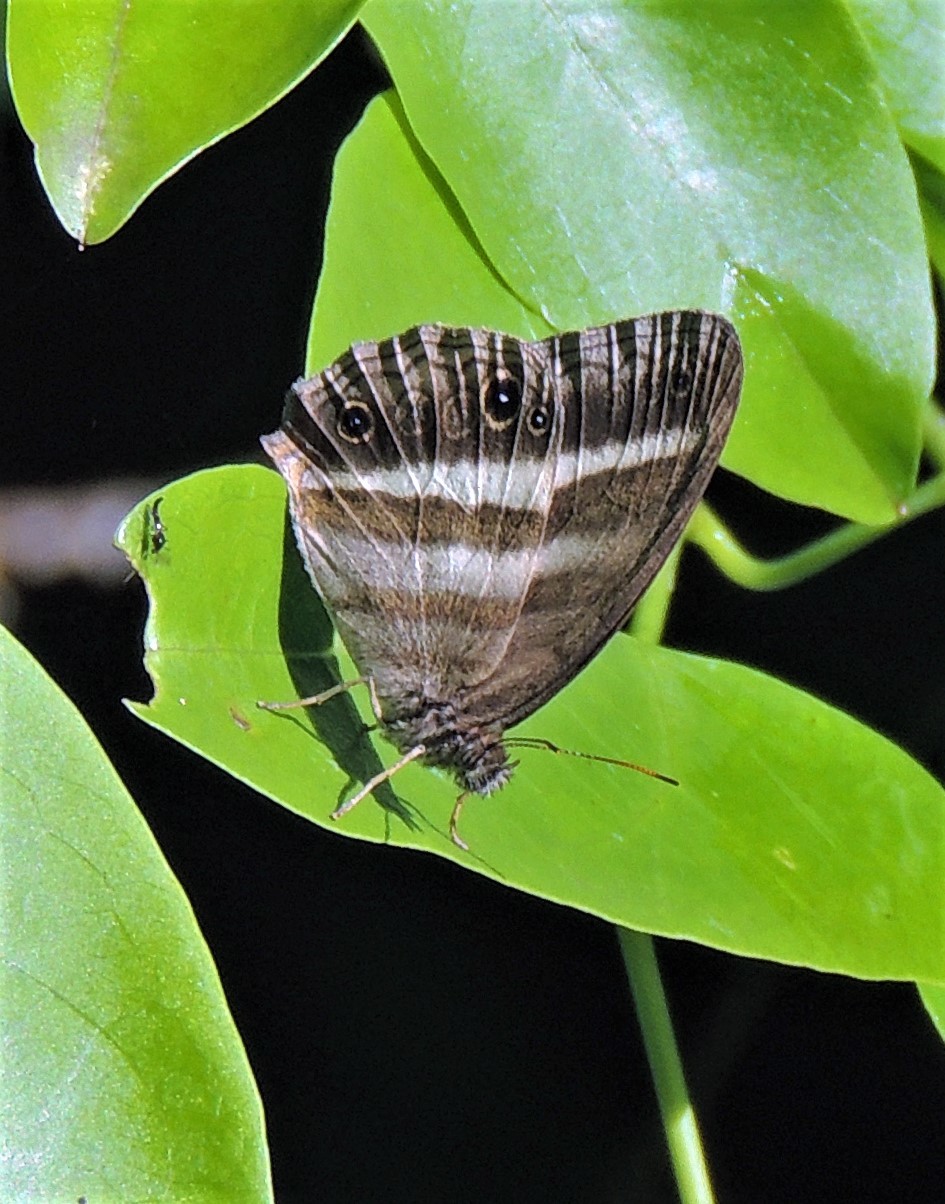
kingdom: Animalia
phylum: Arthropoda
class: Insecta
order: Lepidoptera
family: Nymphalidae
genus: Pareuptychia
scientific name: Pareuptychia summandosa
